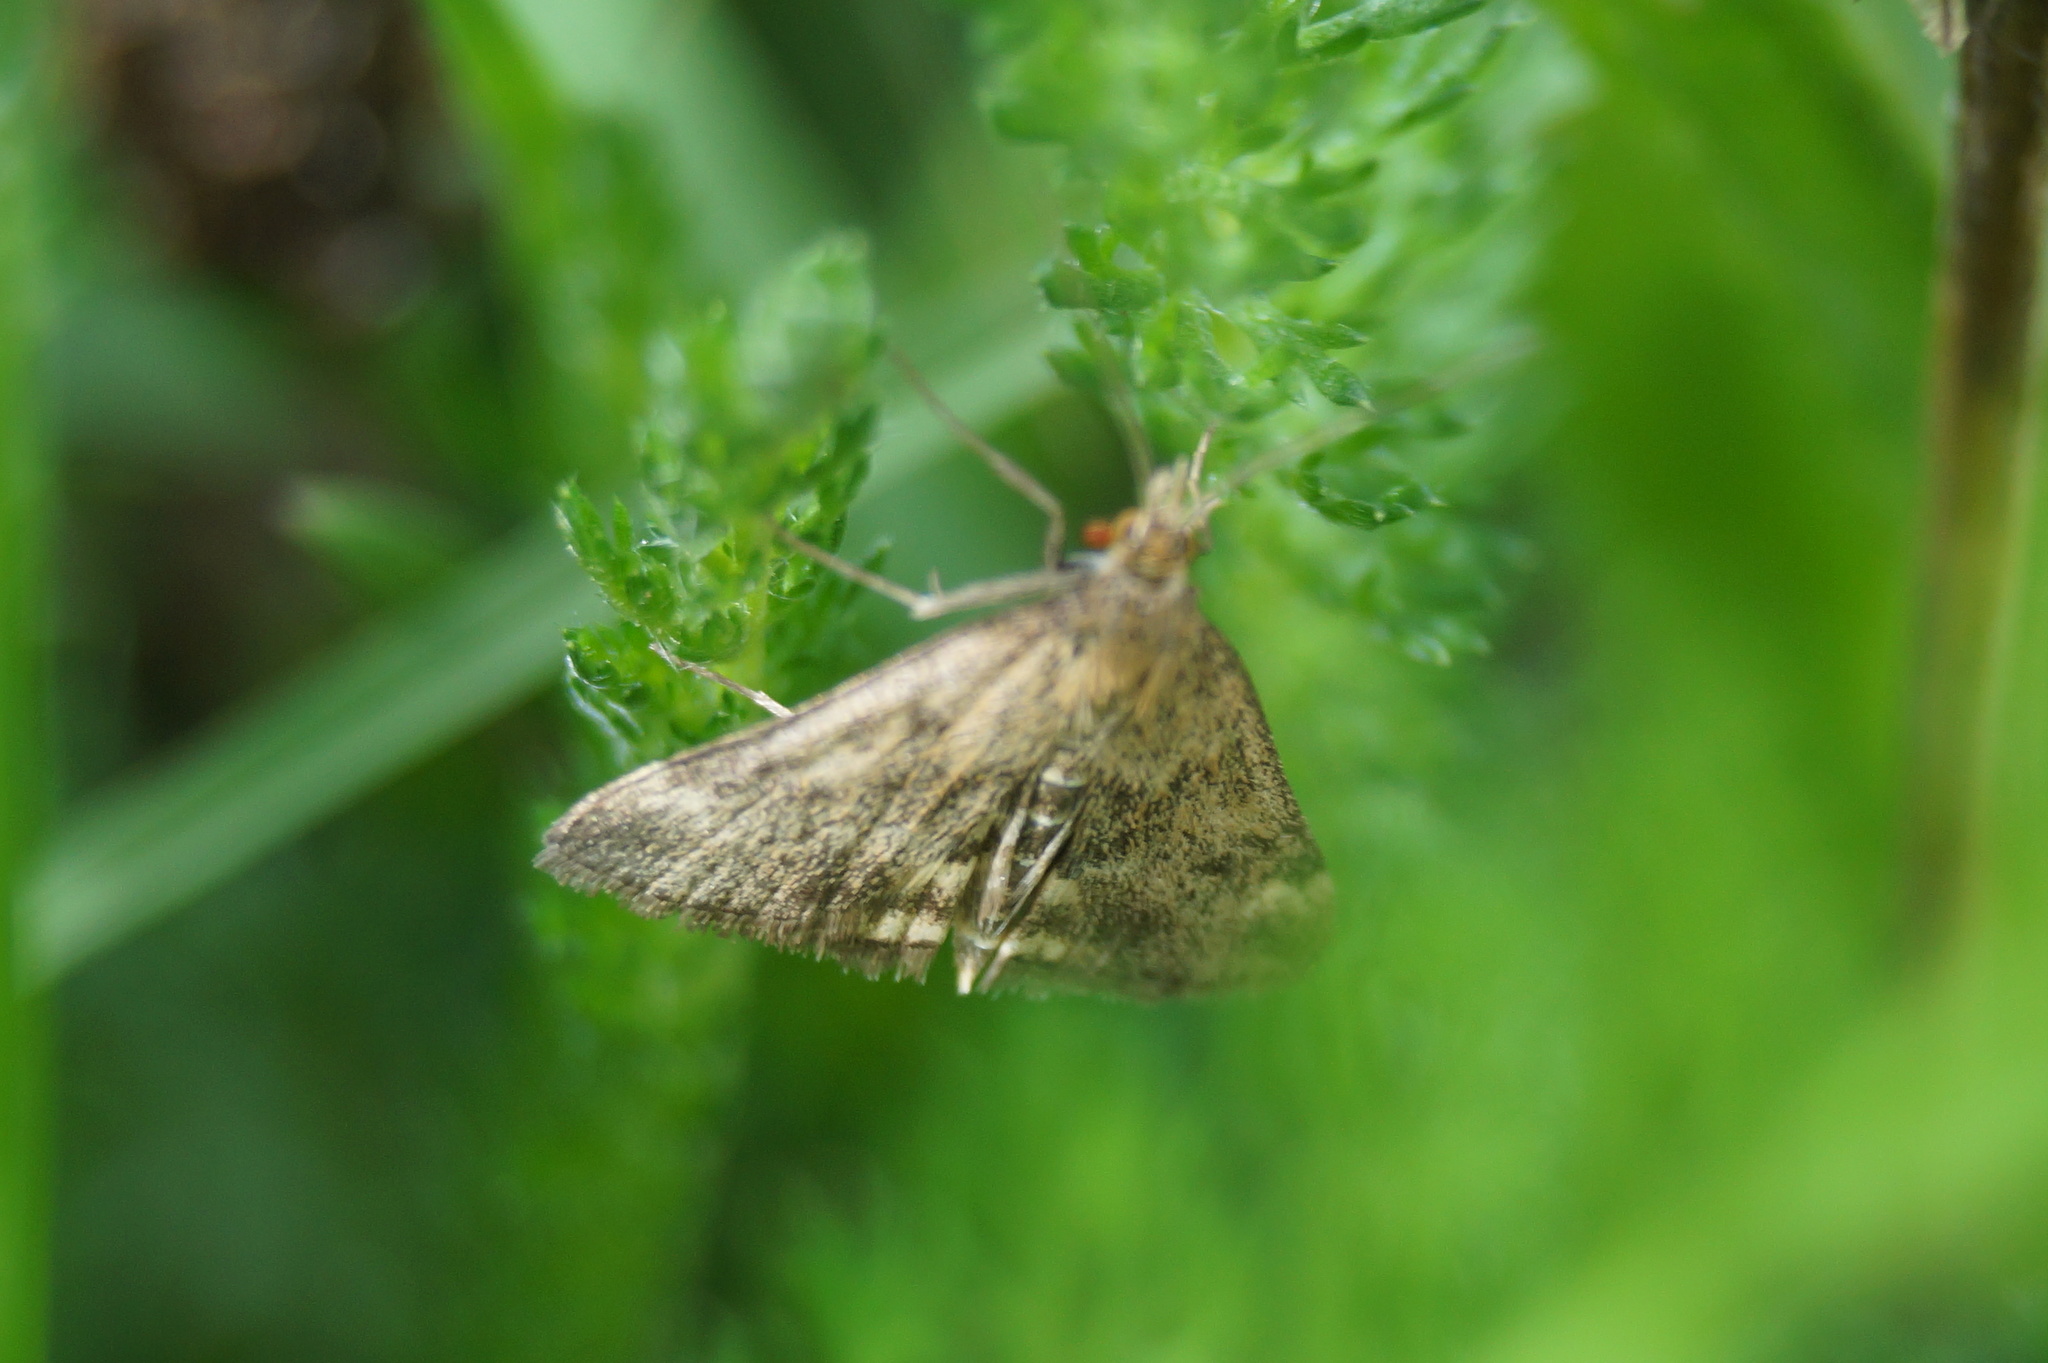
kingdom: Animalia
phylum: Arthropoda
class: Insecta
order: Lepidoptera
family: Crambidae
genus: Pyrausta
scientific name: Pyrausta despicata
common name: Straw-barred pearl
